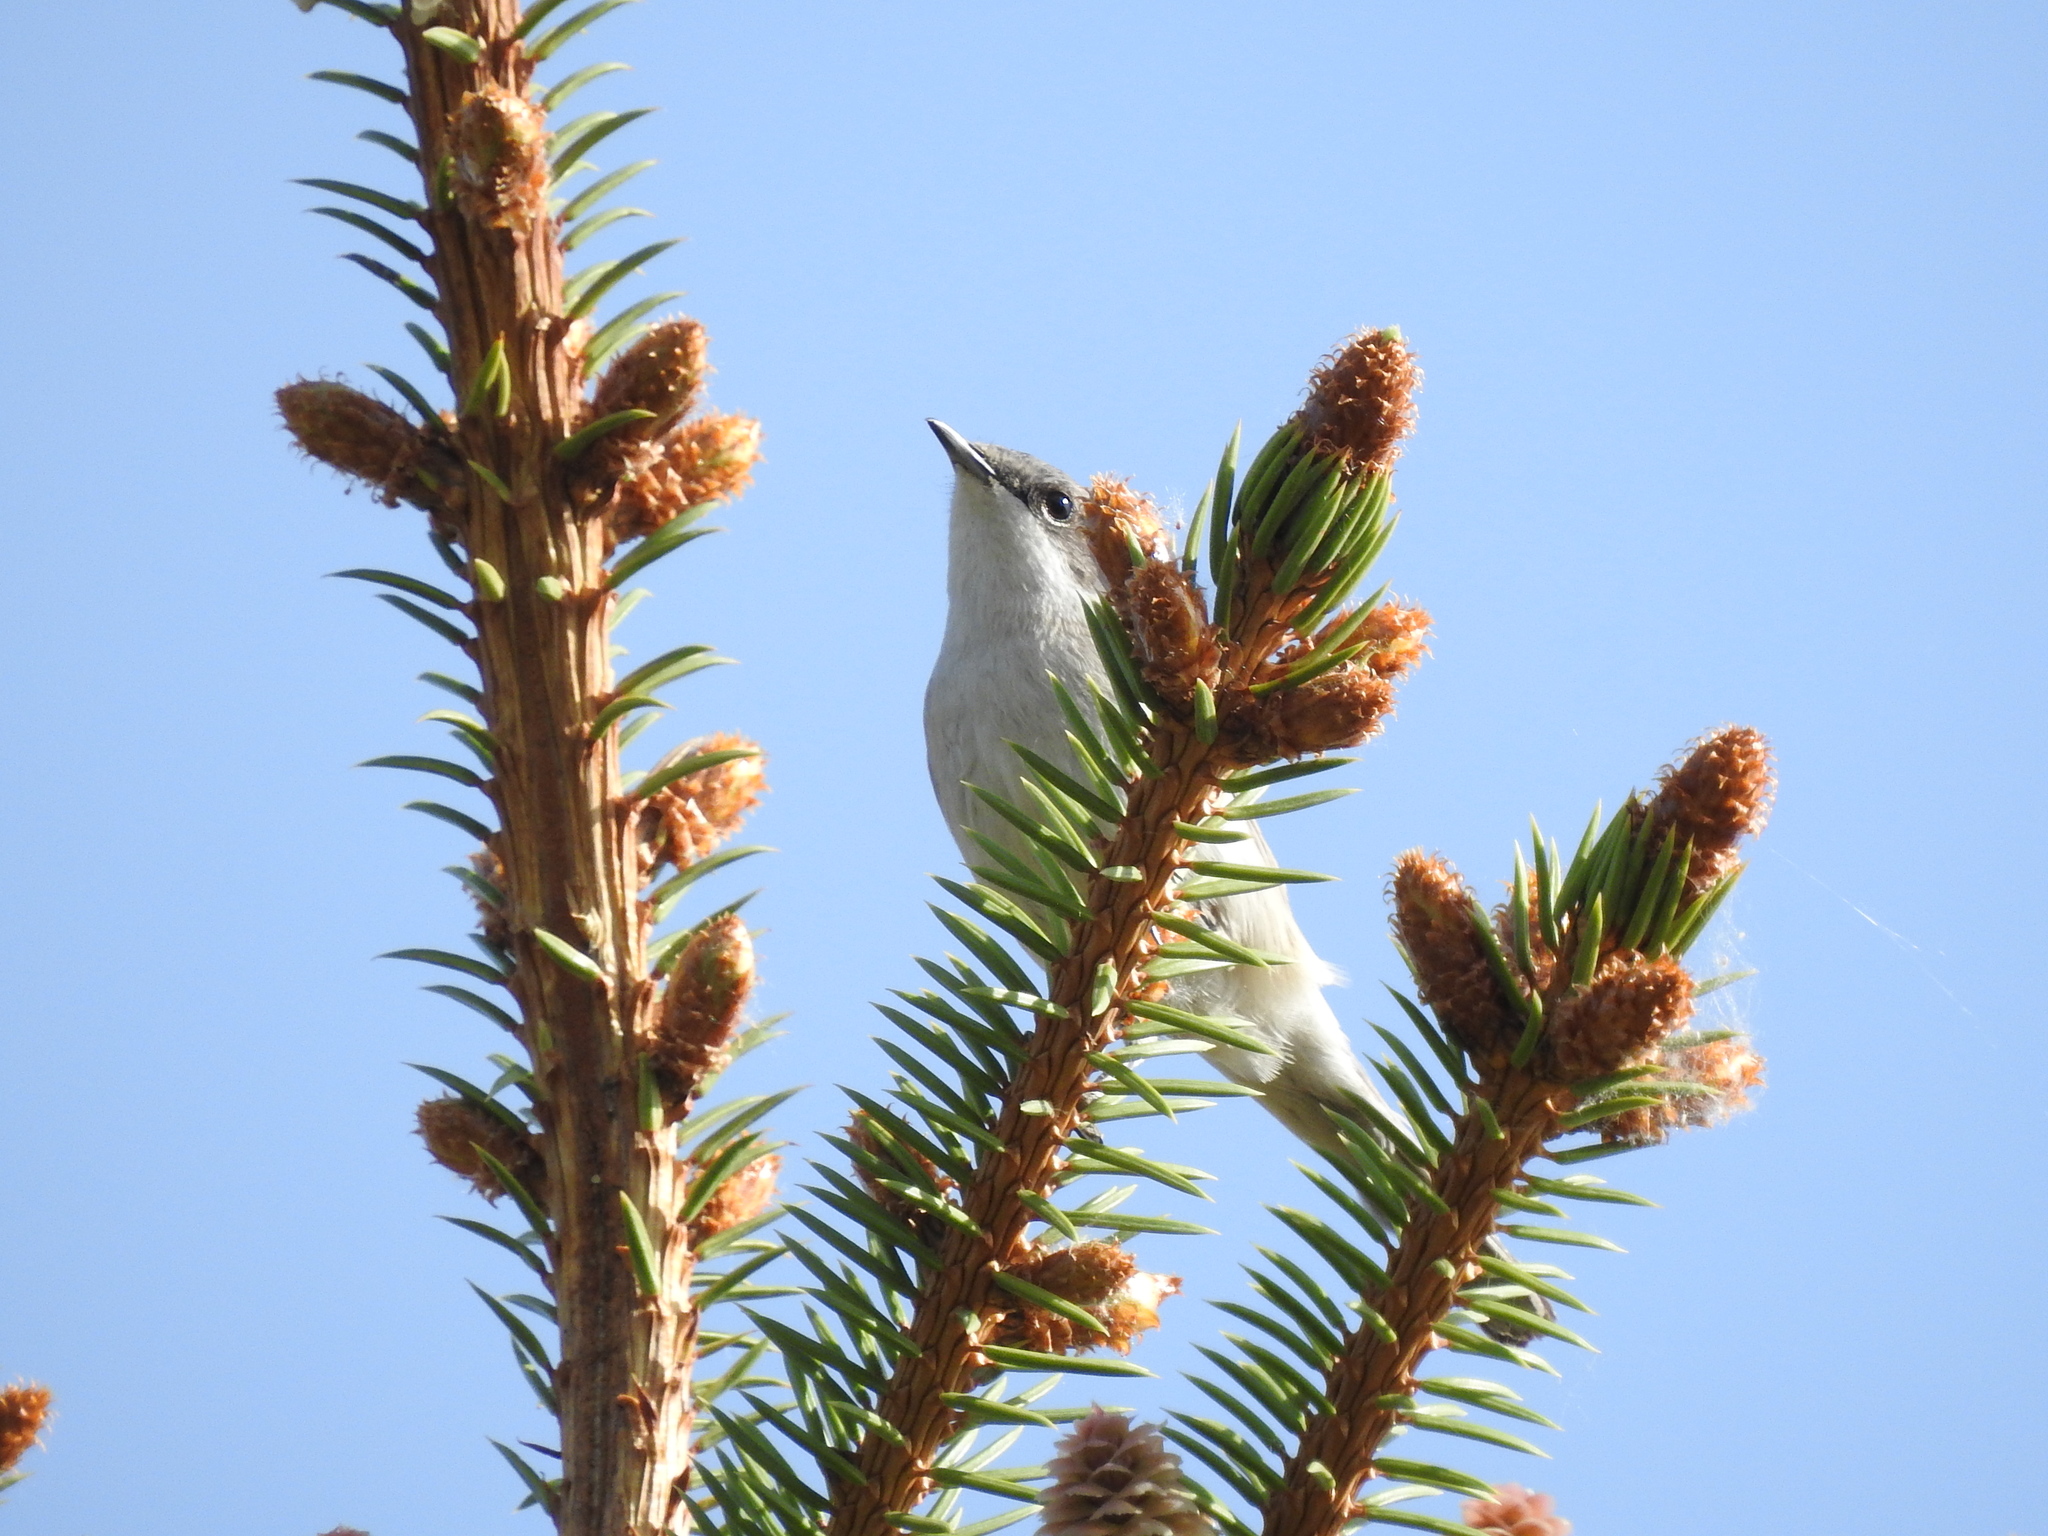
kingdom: Animalia
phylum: Chordata
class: Aves
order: Passeriformes
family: Sylviidae
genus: Sylvia
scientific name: Sylvia curruca
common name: Lesser whitethroat
